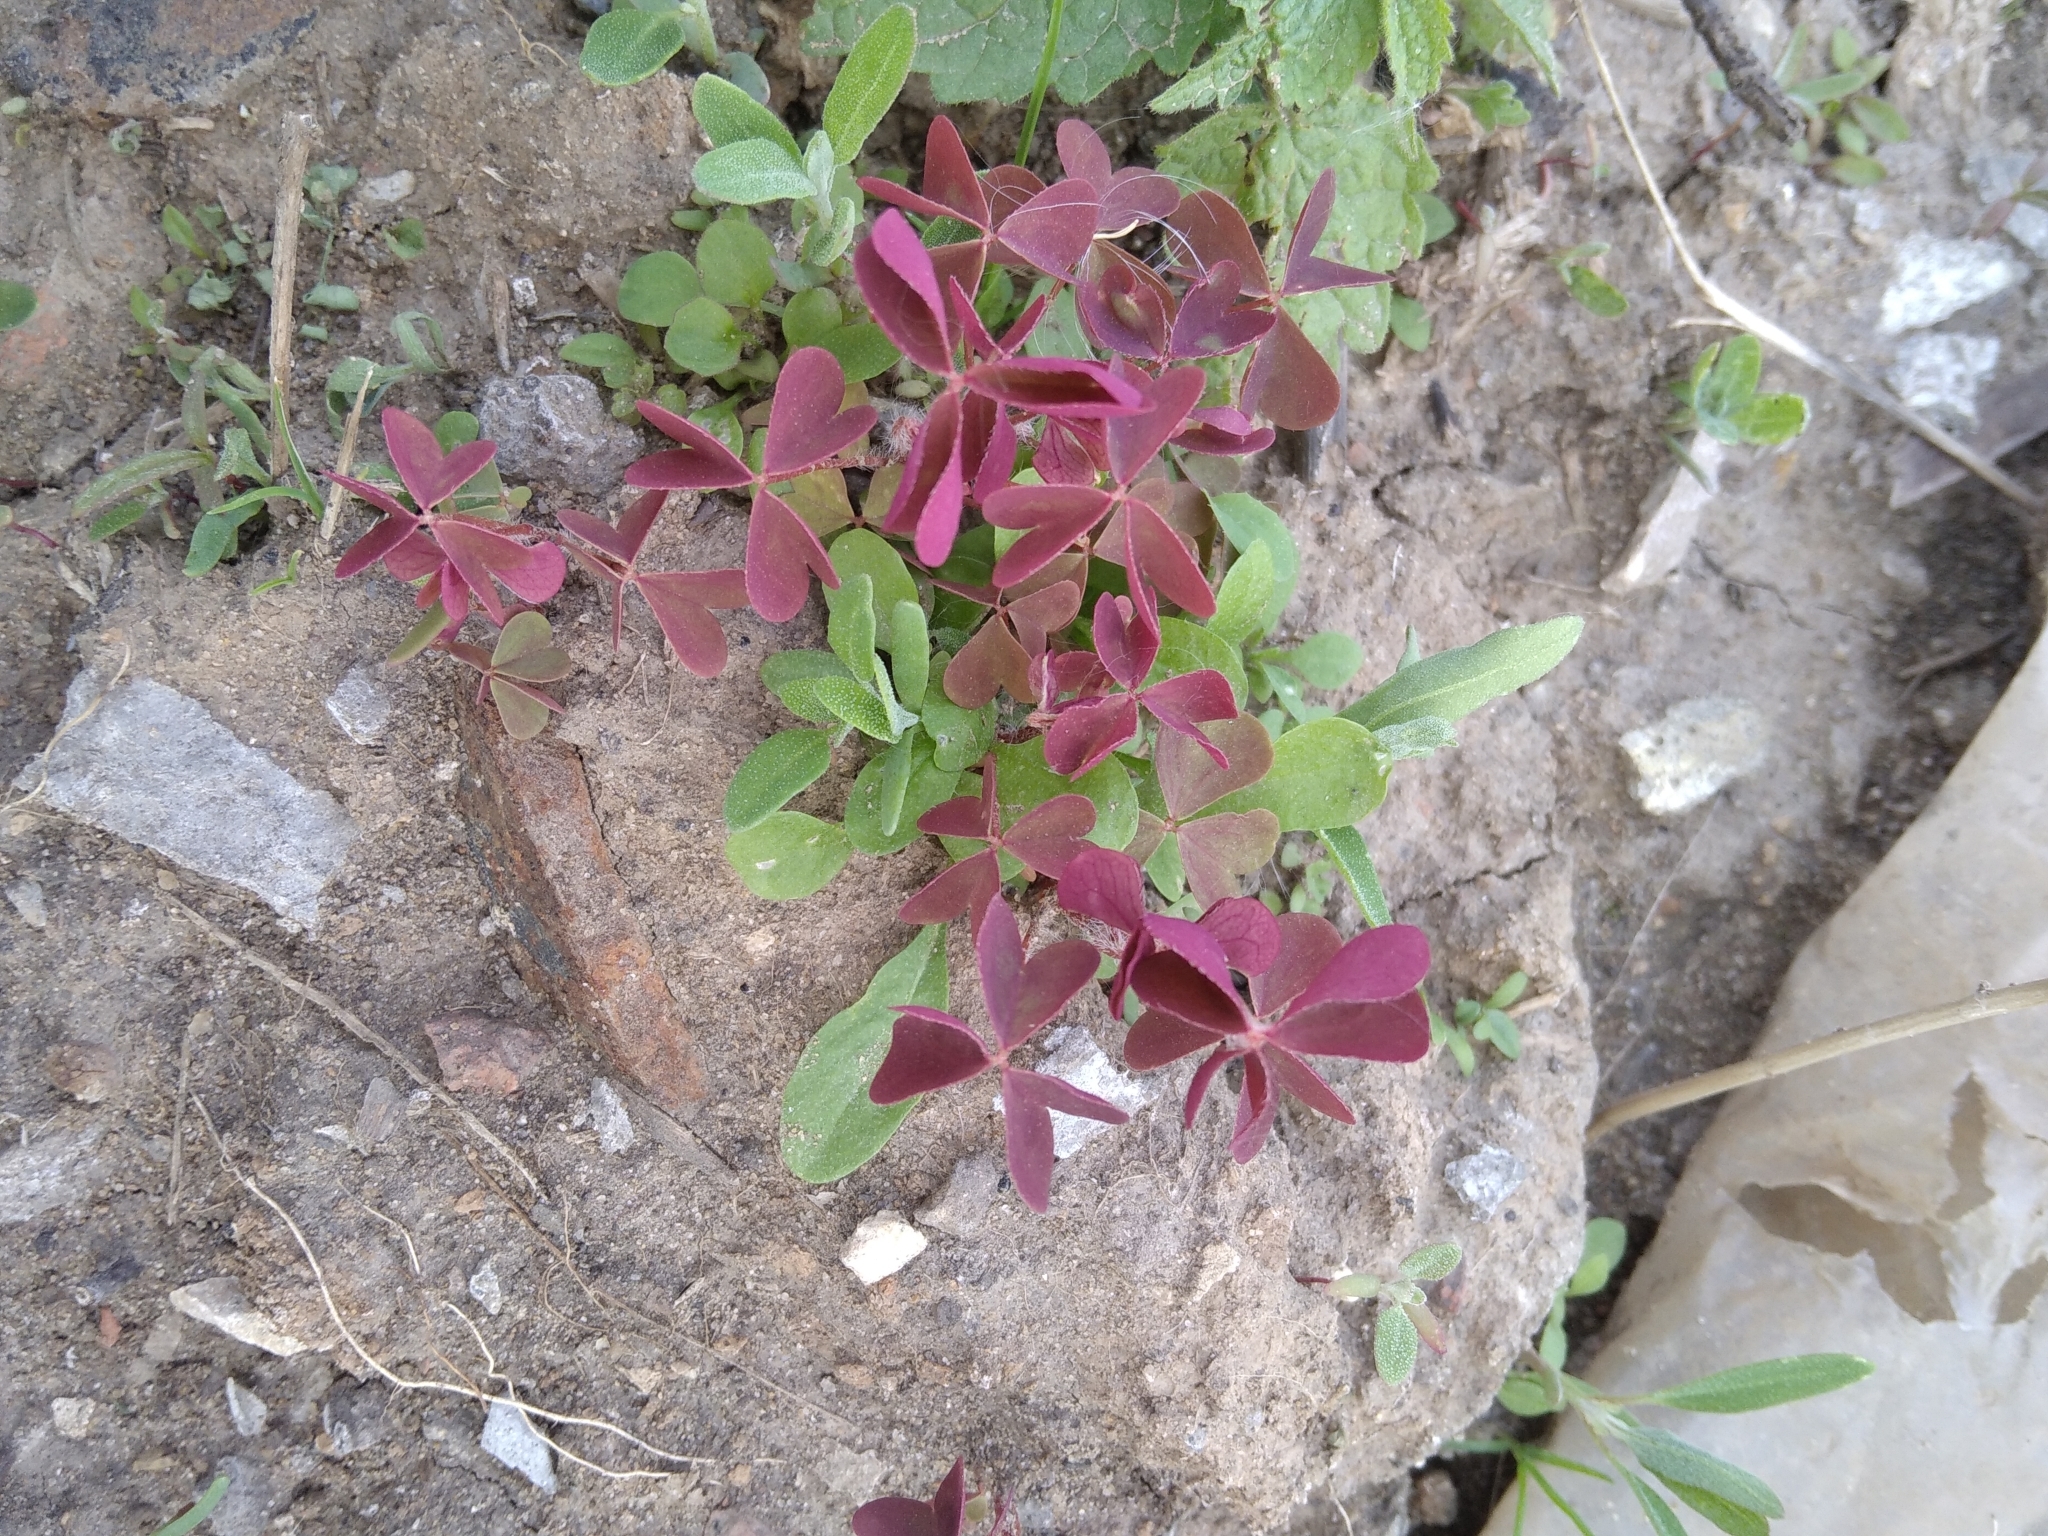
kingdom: Plantae
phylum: Tracheophyta
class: Magnoliopsida
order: Oxalidales
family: Oxalidaceae
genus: Oxalis
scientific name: Oxalis stricta
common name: Upright yellow-sorrel
